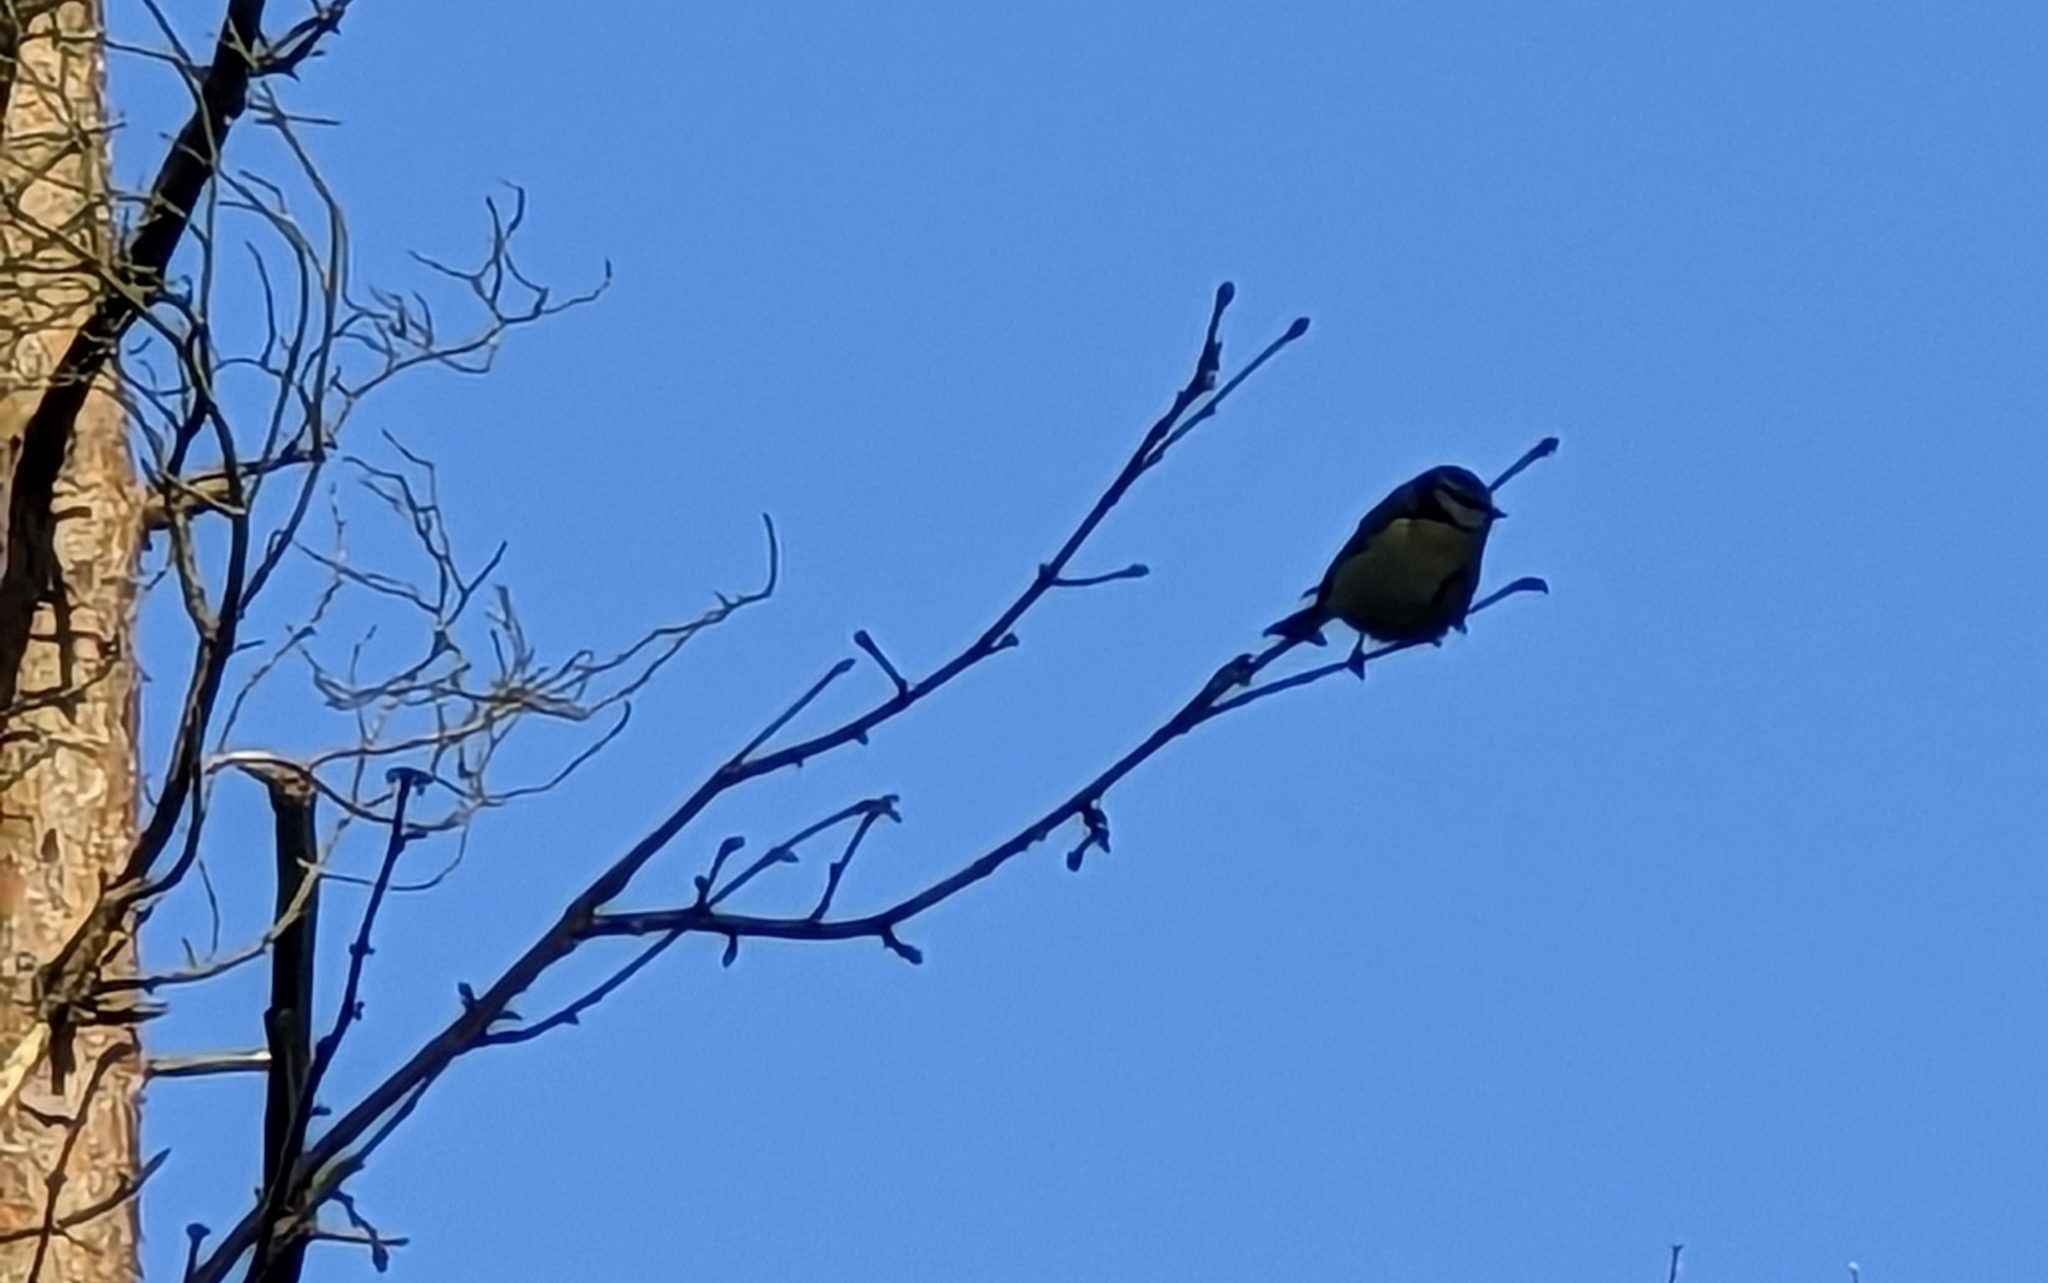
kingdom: Animalia
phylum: Chordata
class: Aves
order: Passeriformes
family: Paridae
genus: Cyanistes
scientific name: Cyanistes caeruleus
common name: Eurasian blue tit
